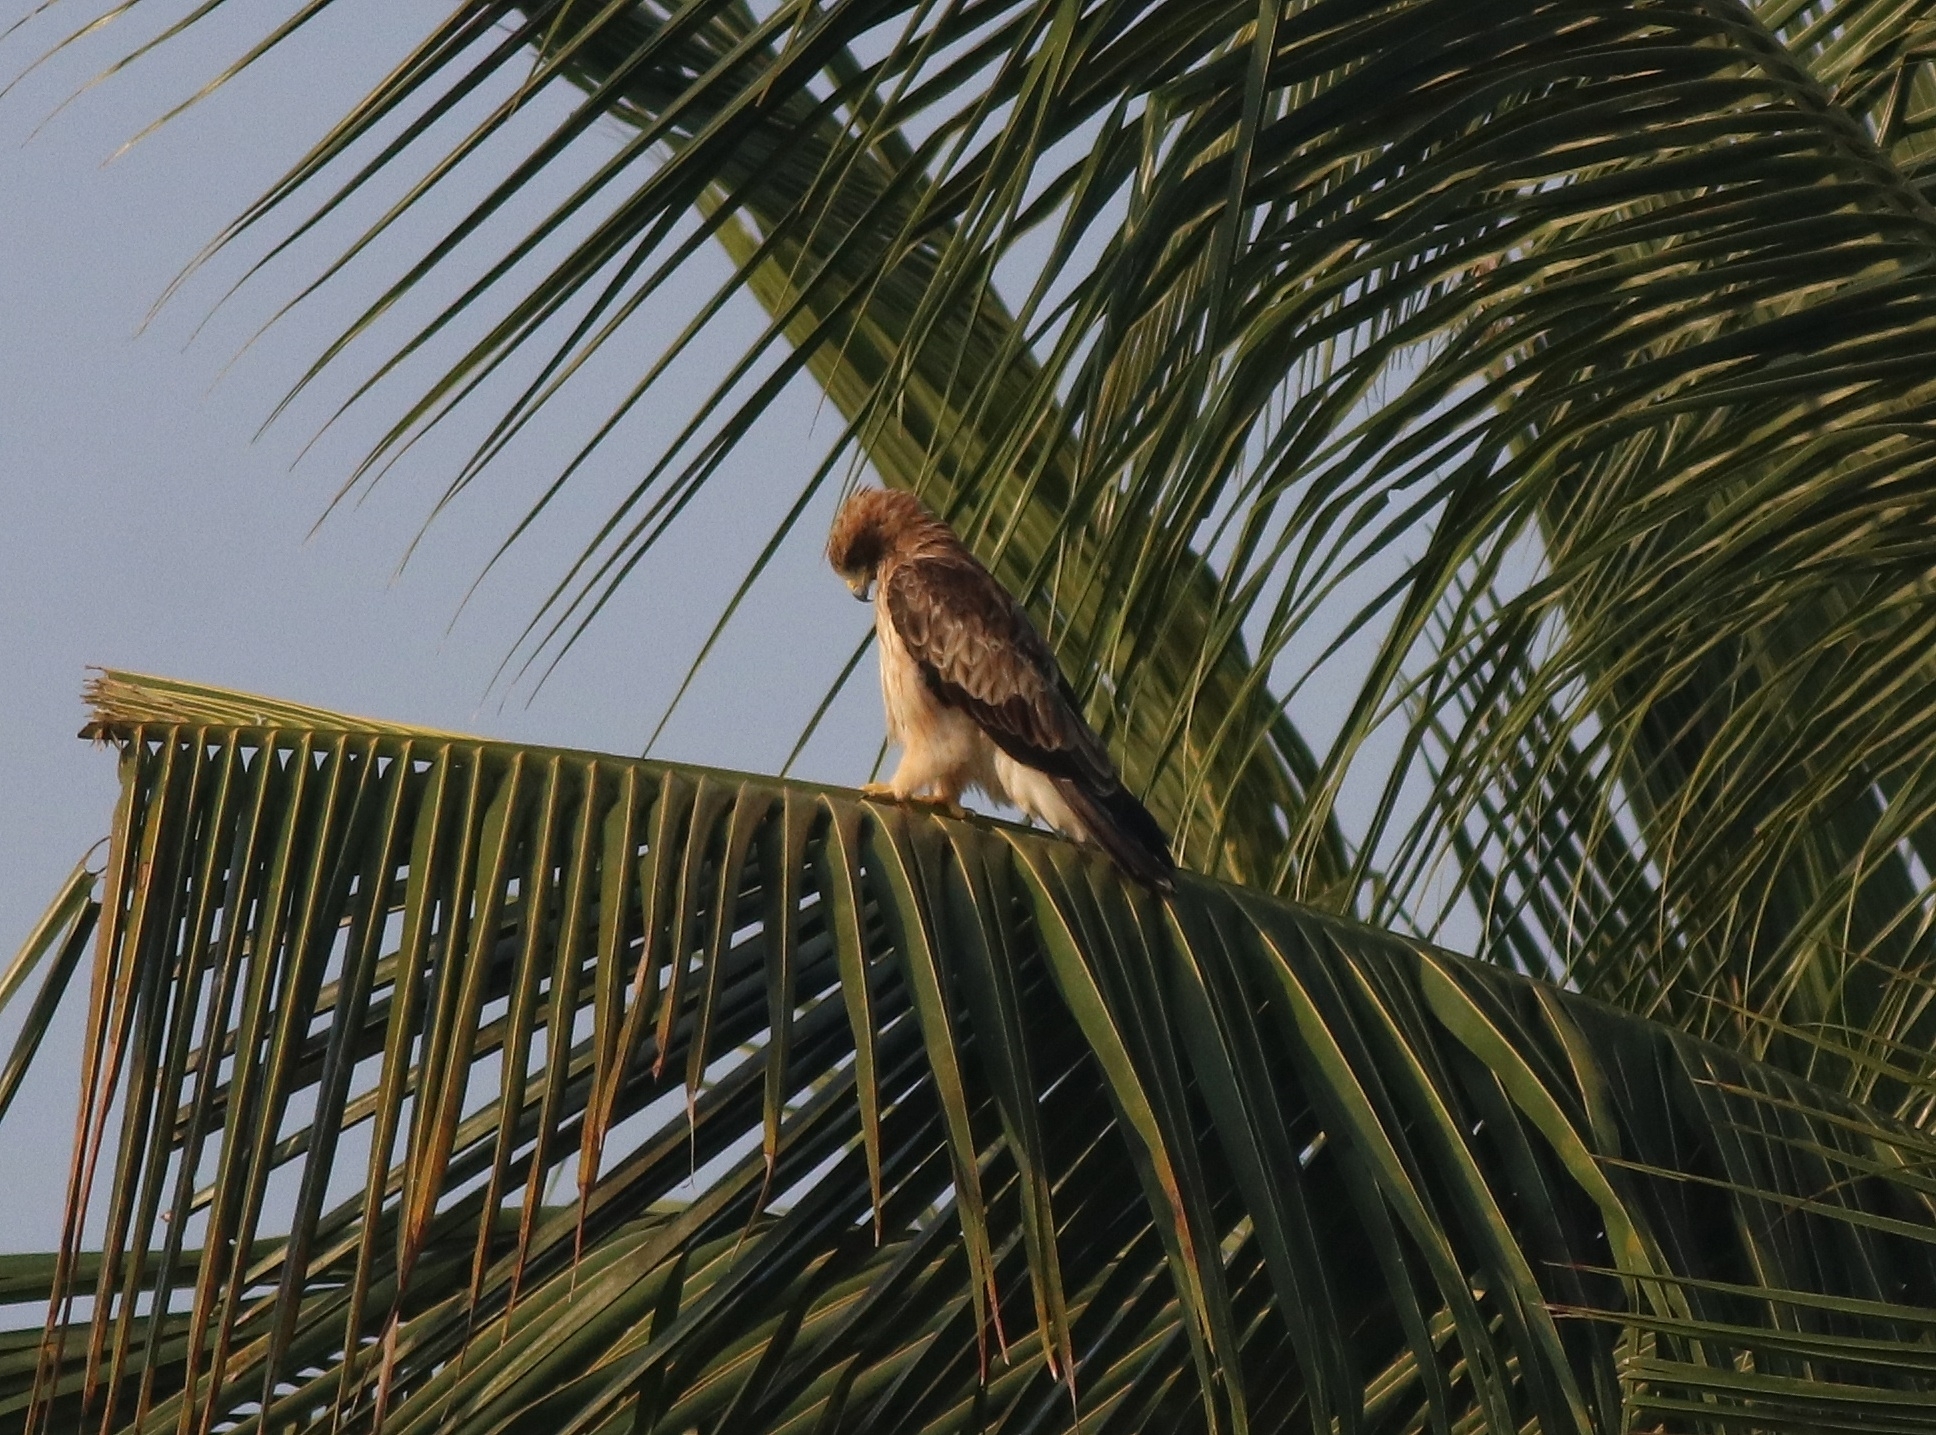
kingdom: Animalia
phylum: Chordata
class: Aves
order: Accipitriformes
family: Accipitridae
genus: Hieraaetus
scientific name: Hieraaetus pennatus
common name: Booted eagle
